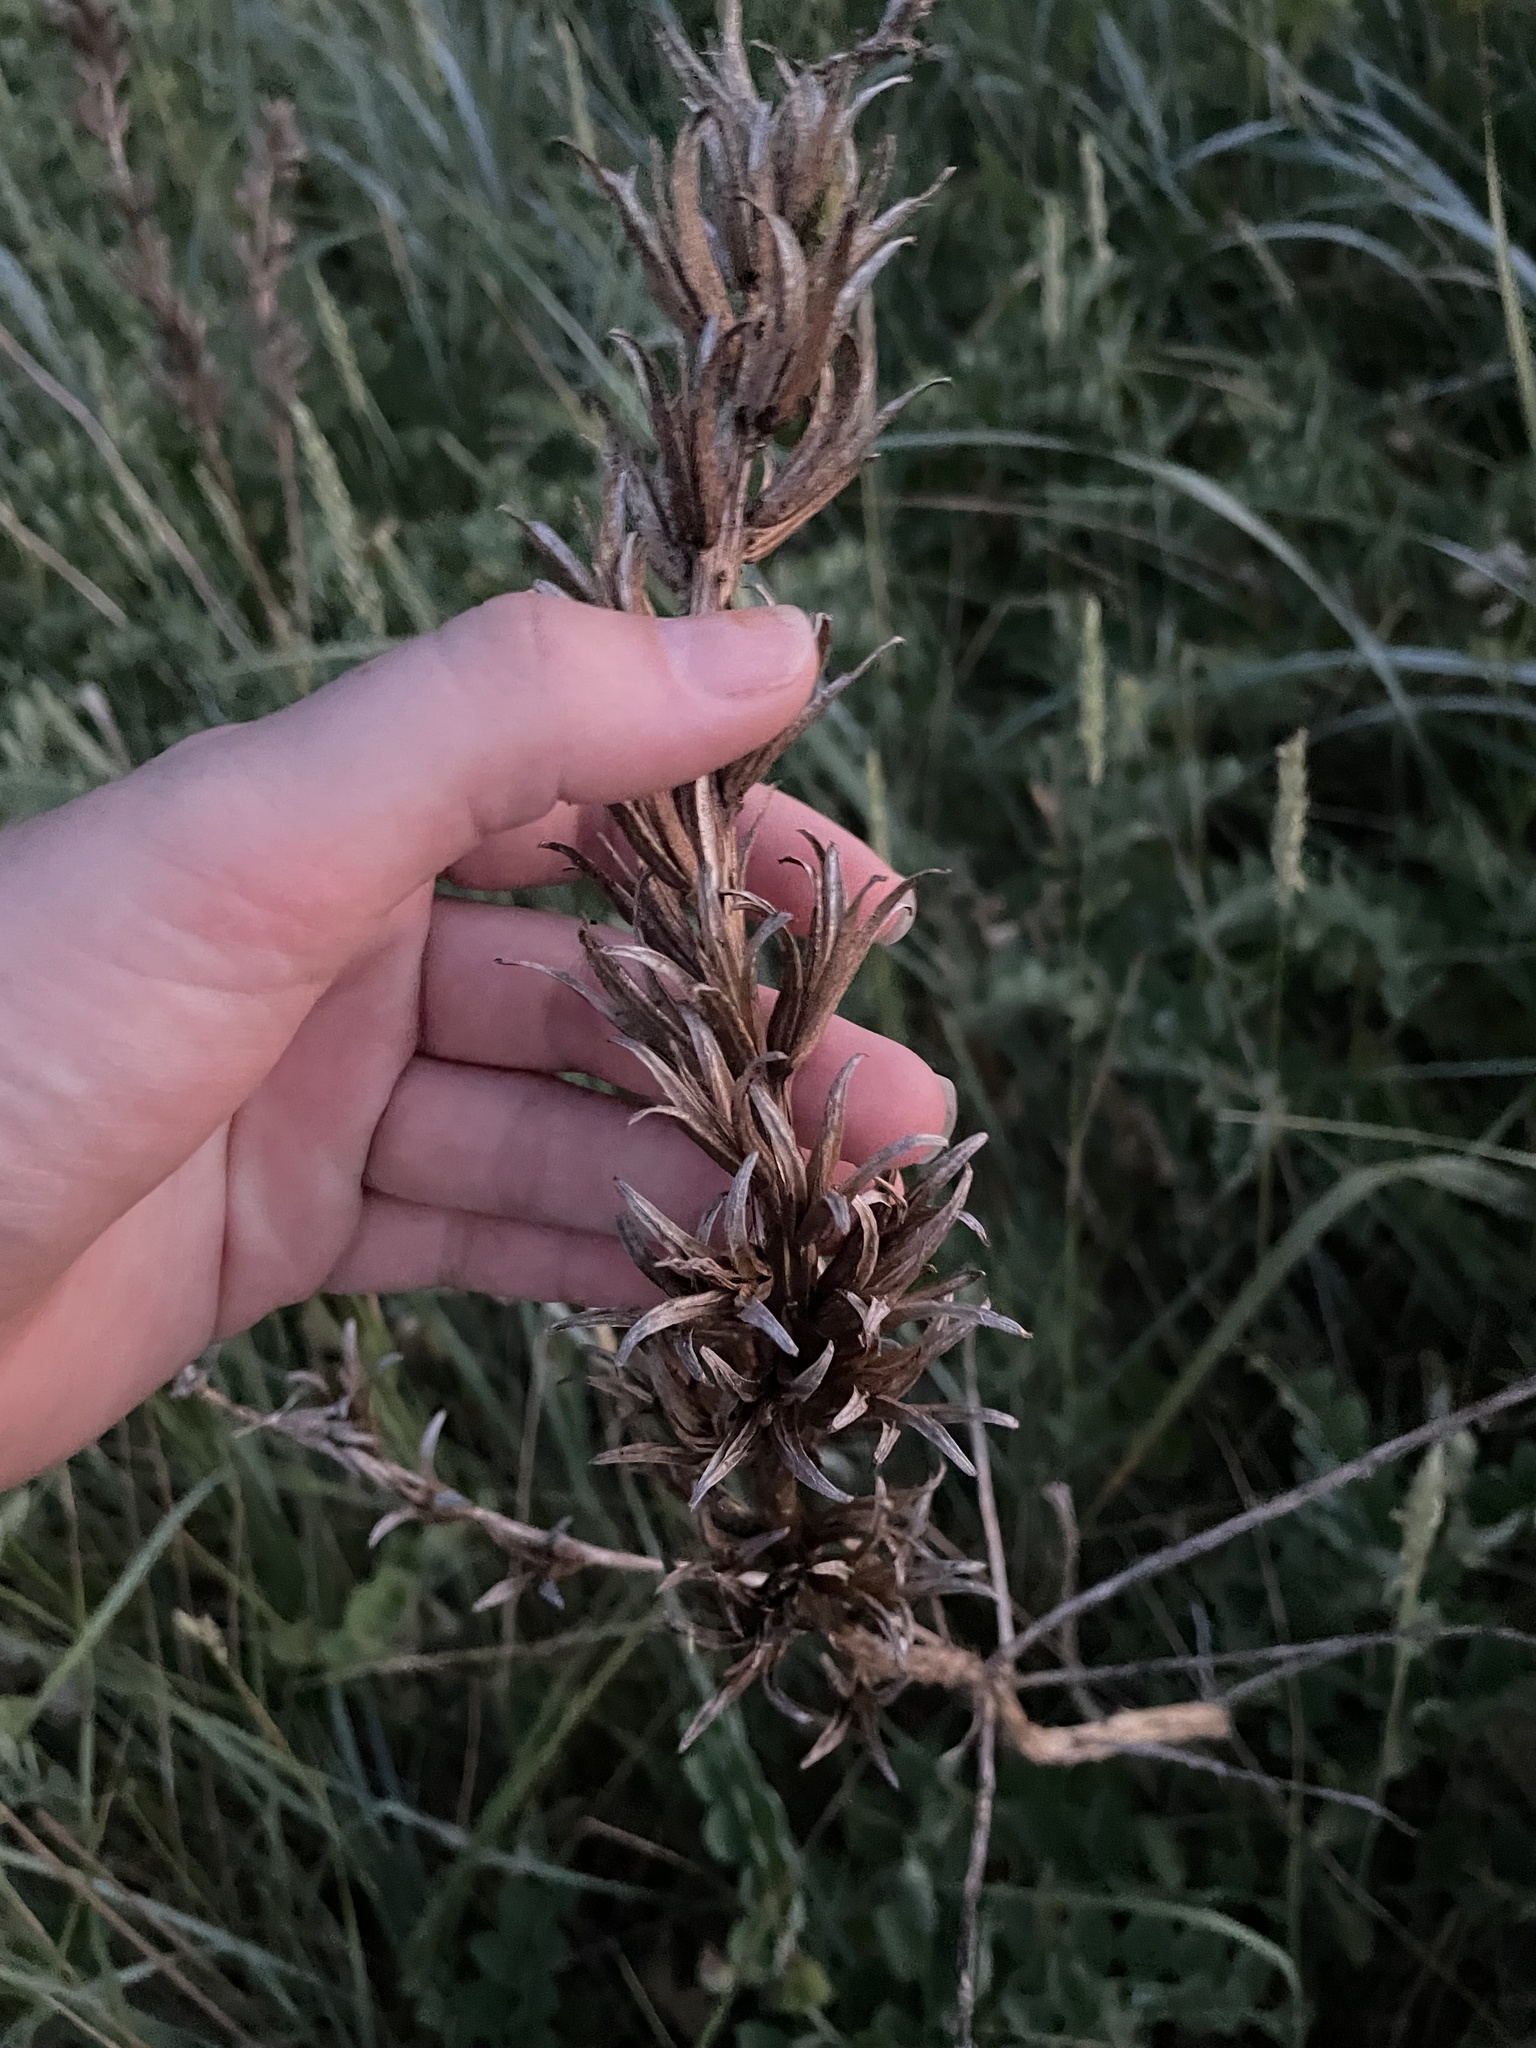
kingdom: Plantae
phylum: Tracheophyta
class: Magnoliopsida
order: Myrtales
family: Onagraceae
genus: Oenothera
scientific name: Oenothera biennis
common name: Common evening-primrose
